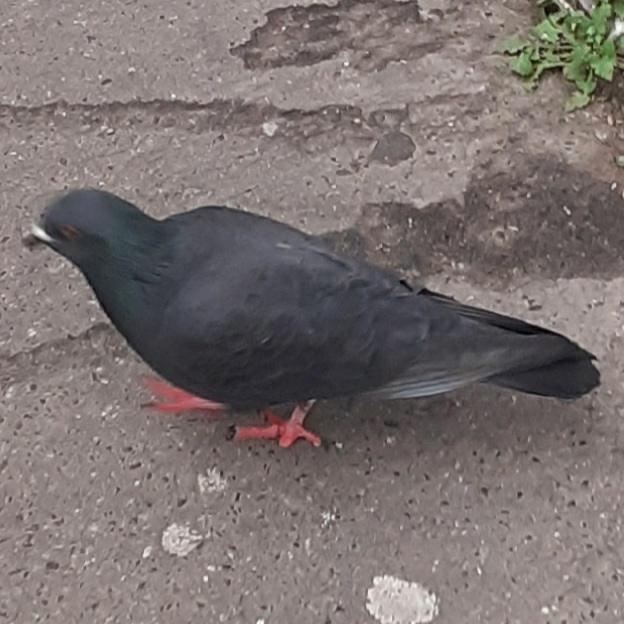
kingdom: Animalia
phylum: Chordata
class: Aves
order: Columbiformes
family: Columbidae
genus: Columba
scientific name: Columba livia
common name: Rock pigeon
